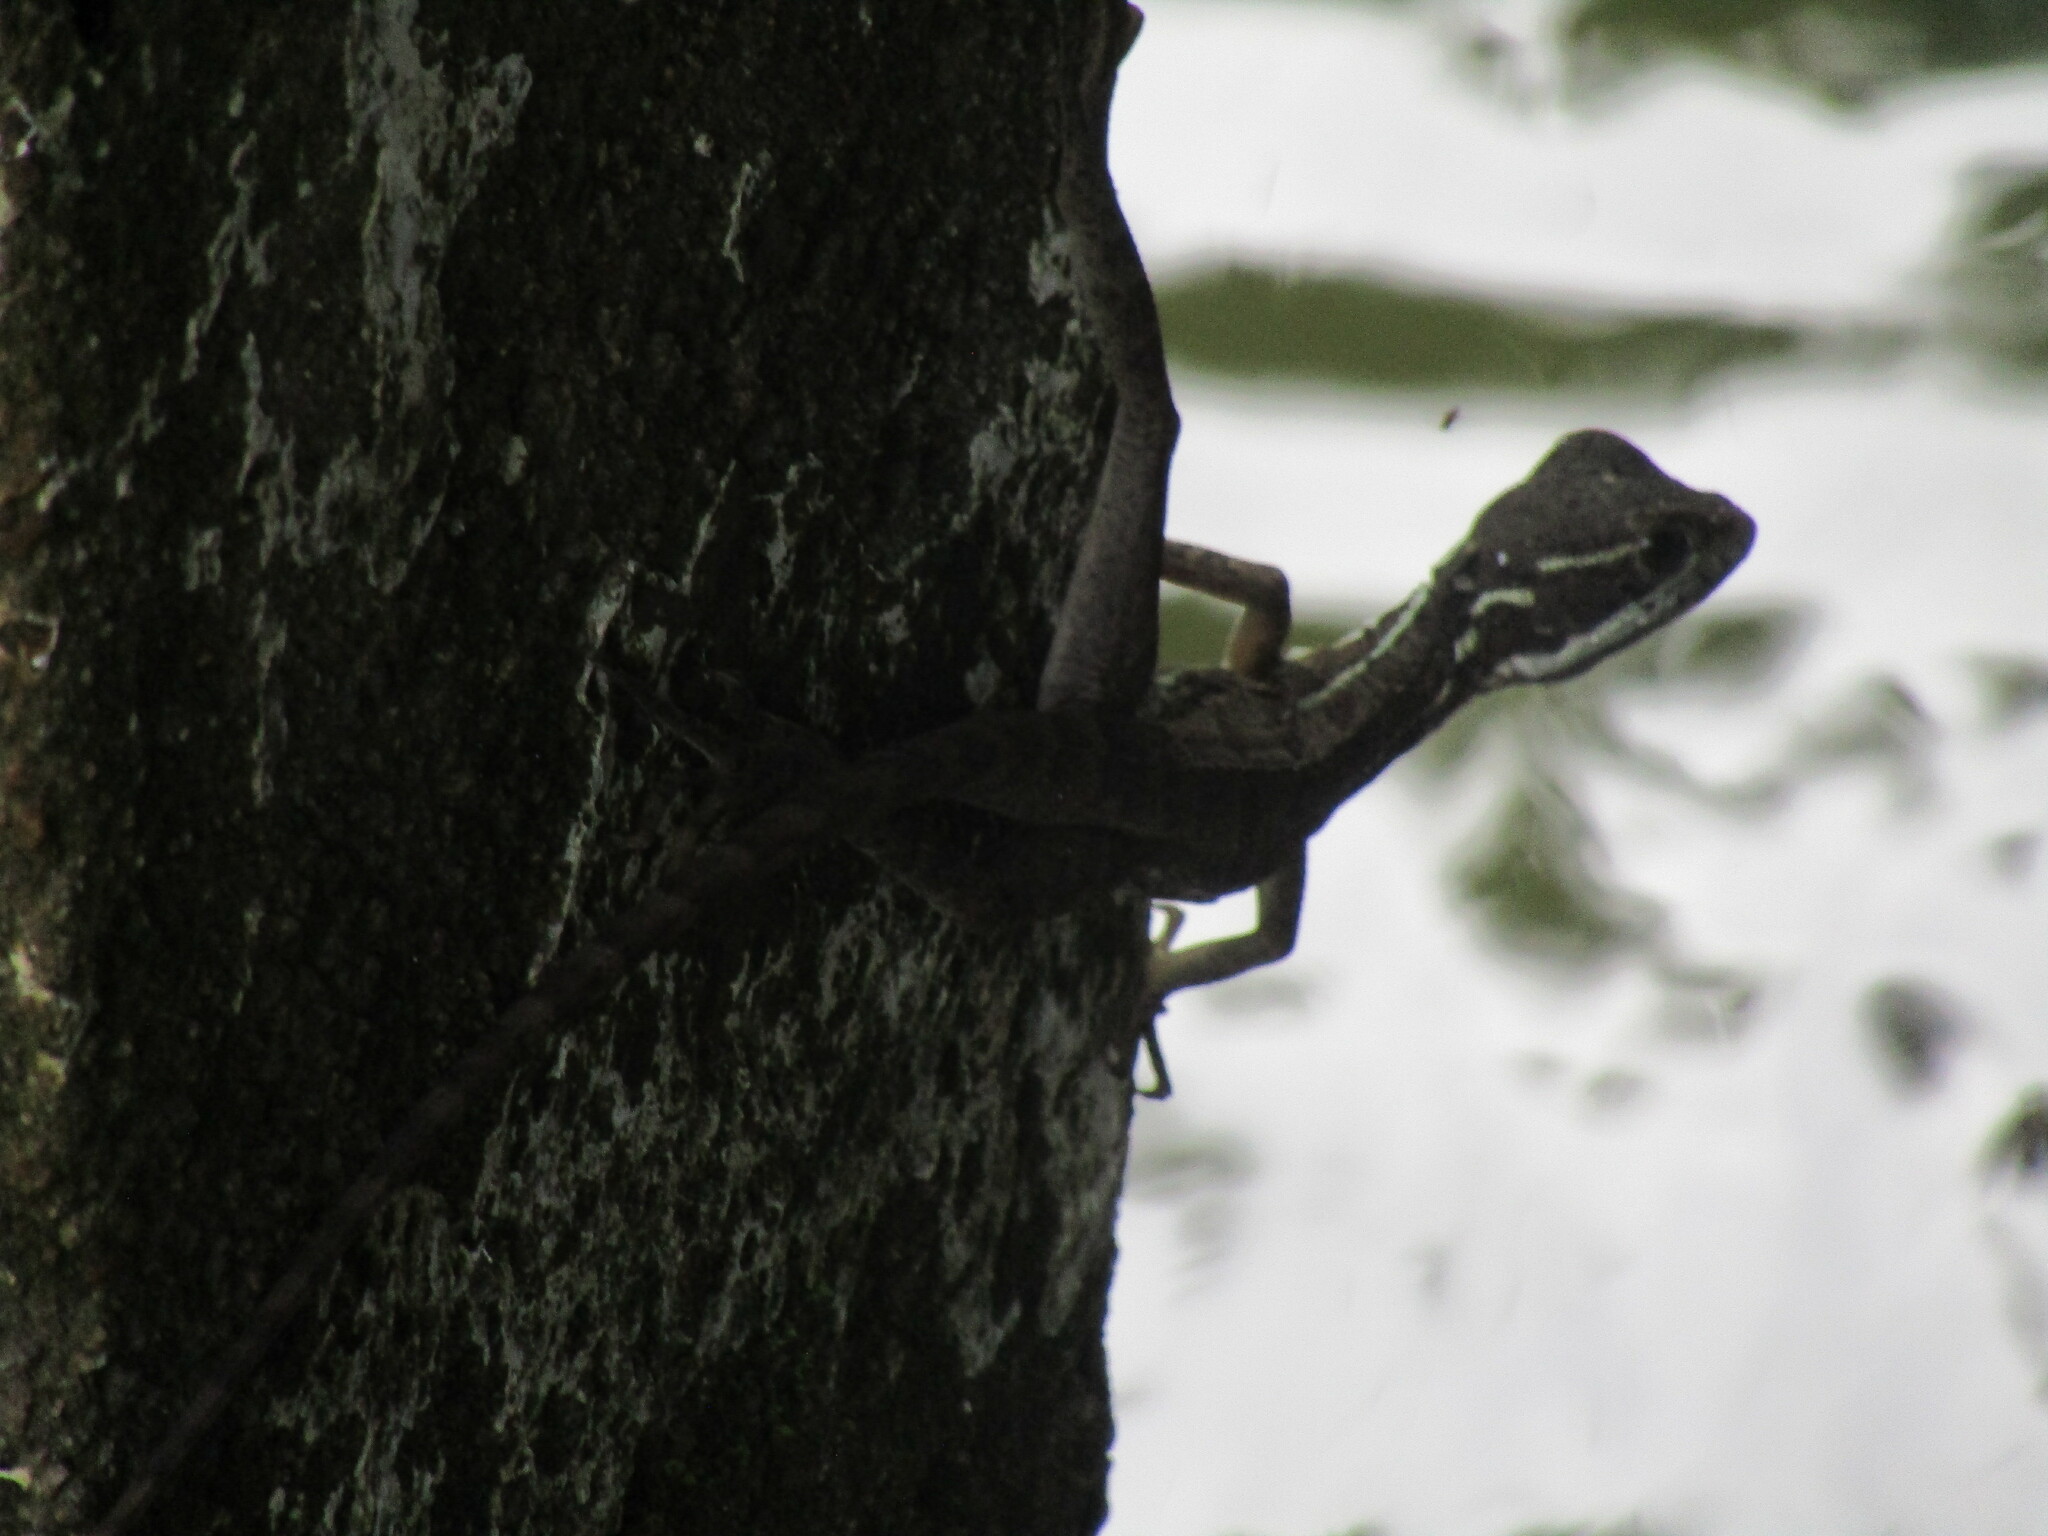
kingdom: Animalia
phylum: Chordata
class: Squamata
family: Corytophanidae
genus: Basiliscus
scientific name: Basiliscus basiliscus
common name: Common basilisk
